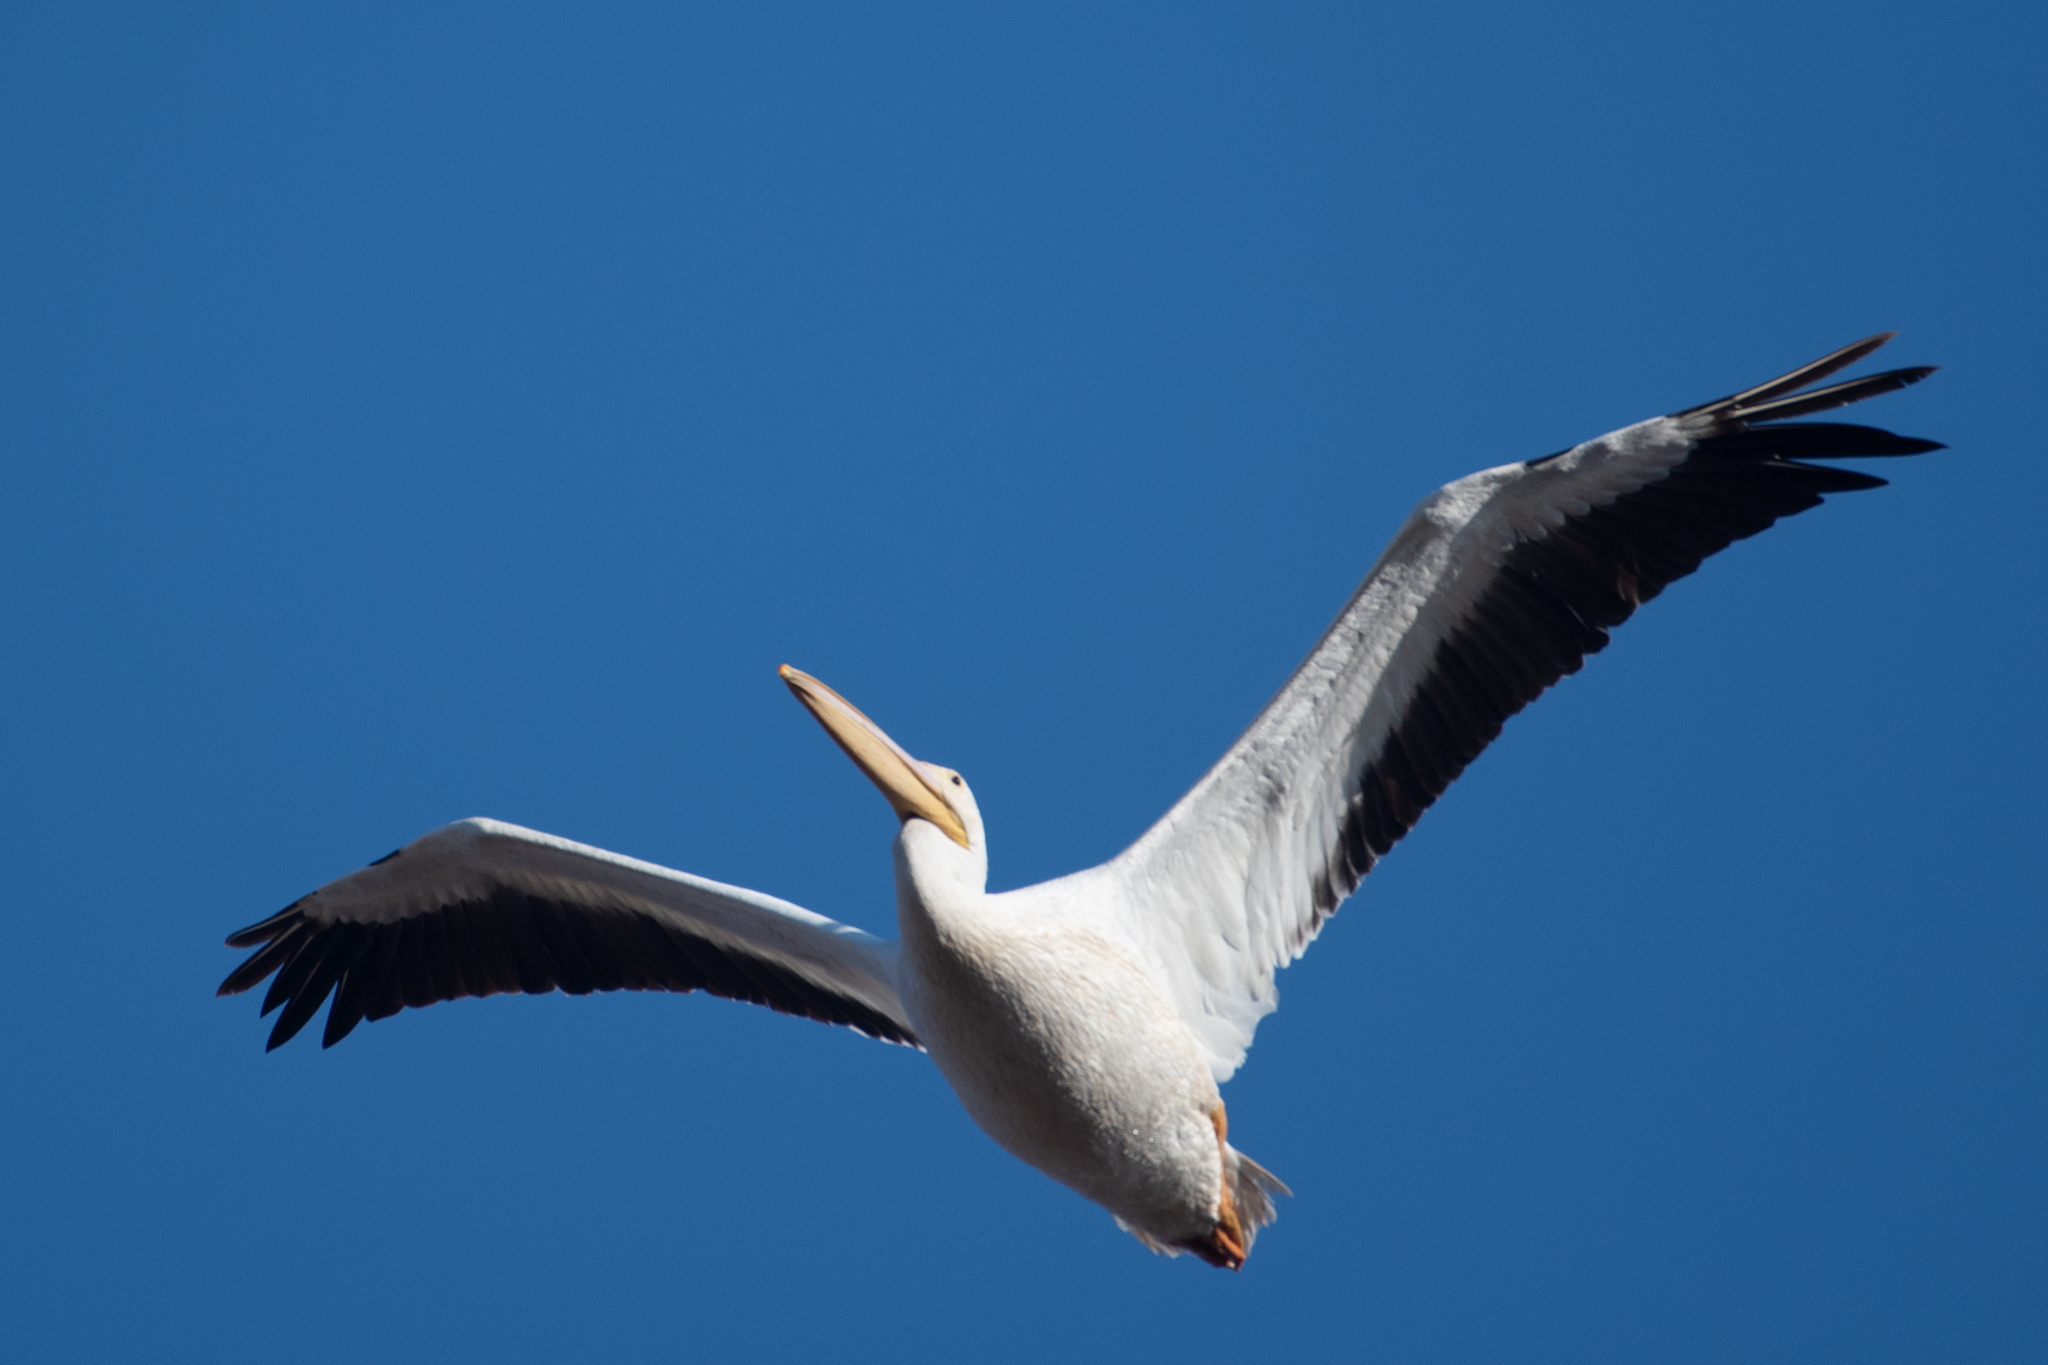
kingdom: Animalia
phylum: Chordata
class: Aves
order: Pelecaniformes
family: Pelecanidae
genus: Pelecanus
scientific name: Pelecanus erythrorhynchos
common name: American white pelican
